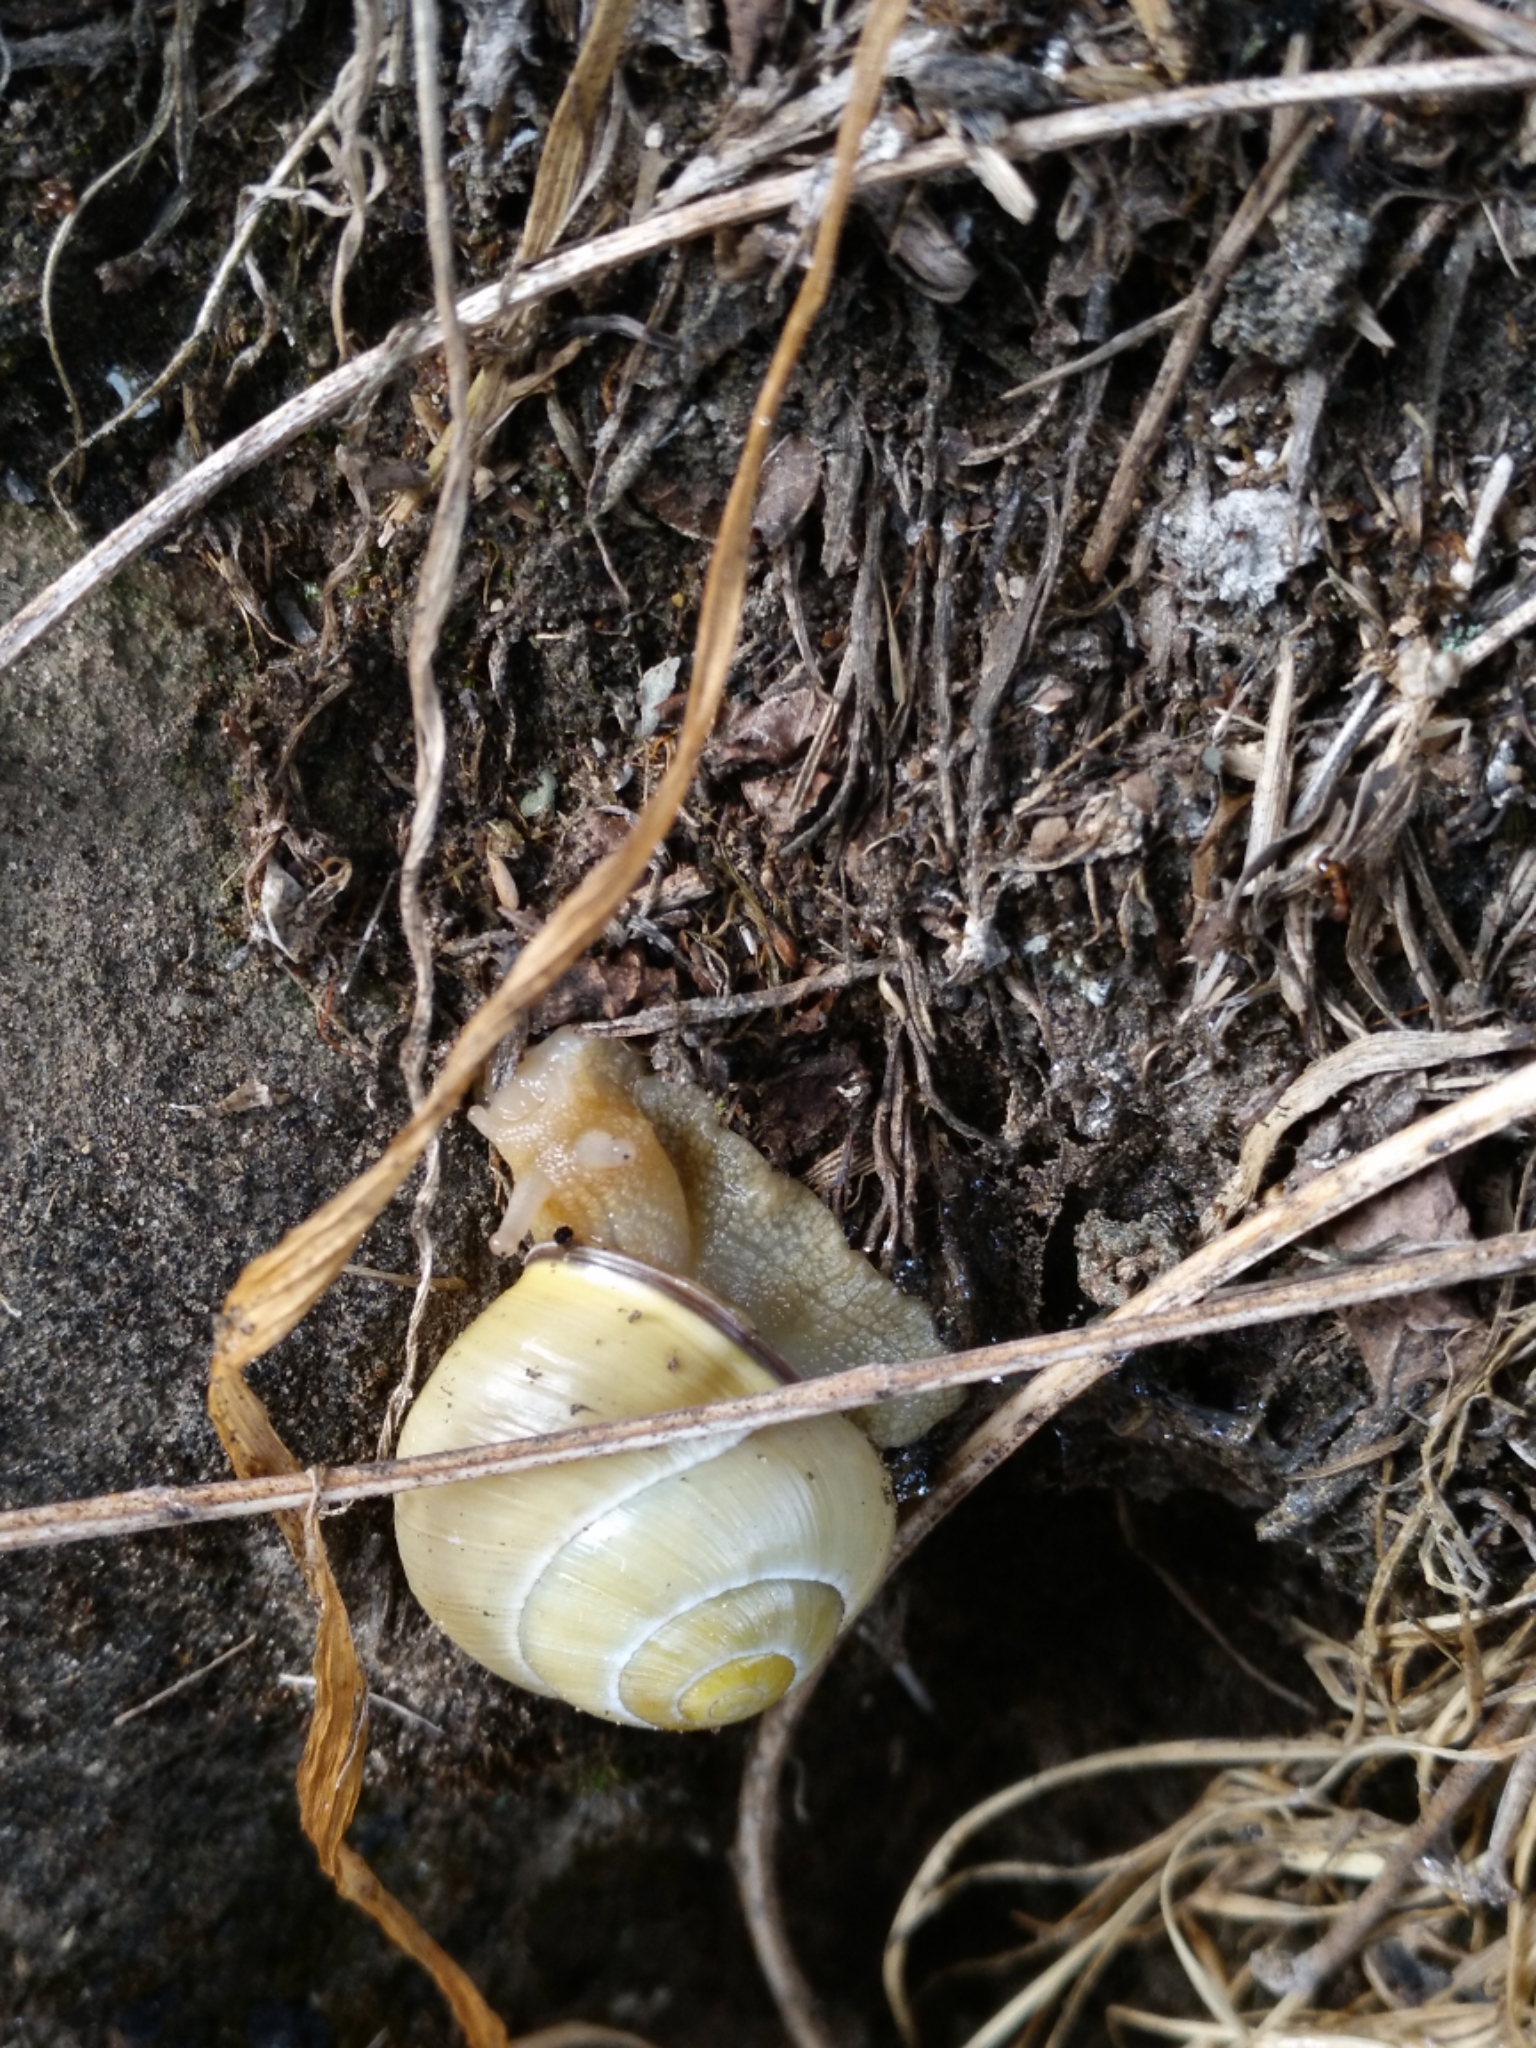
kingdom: Animalia
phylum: Mollusca
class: Gastropoda
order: Stylommatophora
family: Helicidae
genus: Cepaea
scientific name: Cepaea nemoralis
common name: Grovesnail
